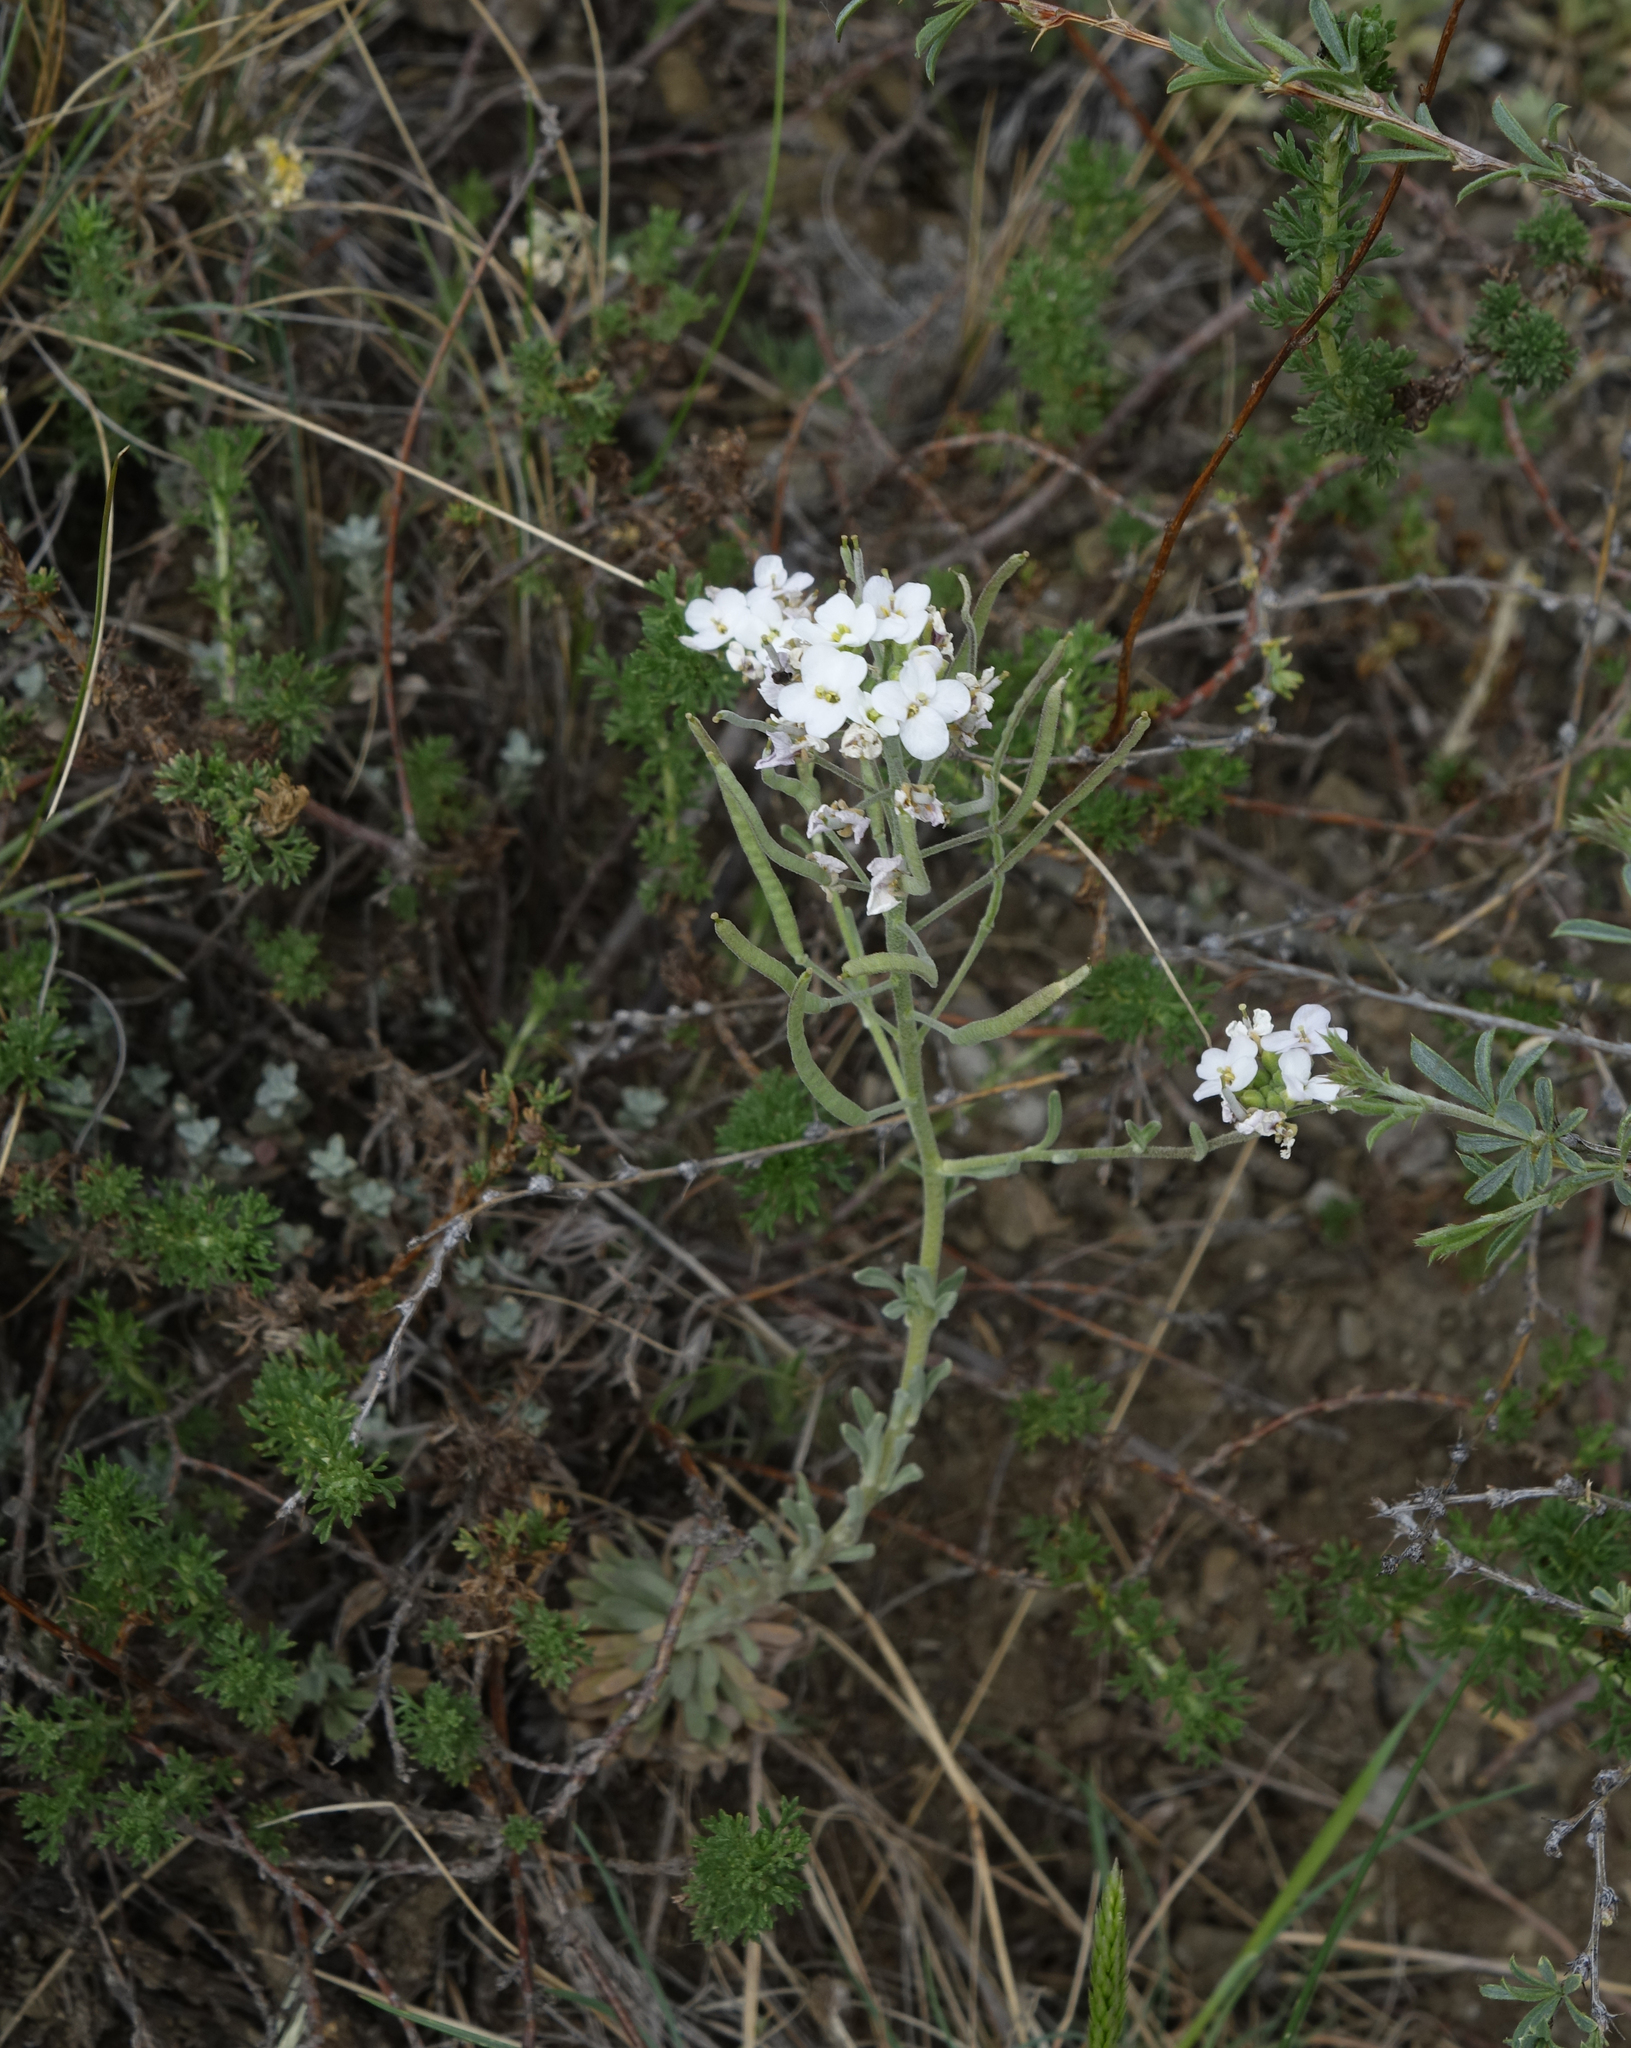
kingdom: Plantae
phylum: Tracheophyta
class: Magnoliopsida
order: Brassicales
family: Brassicaceae
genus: Stevenia
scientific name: Stevenia incarnata
